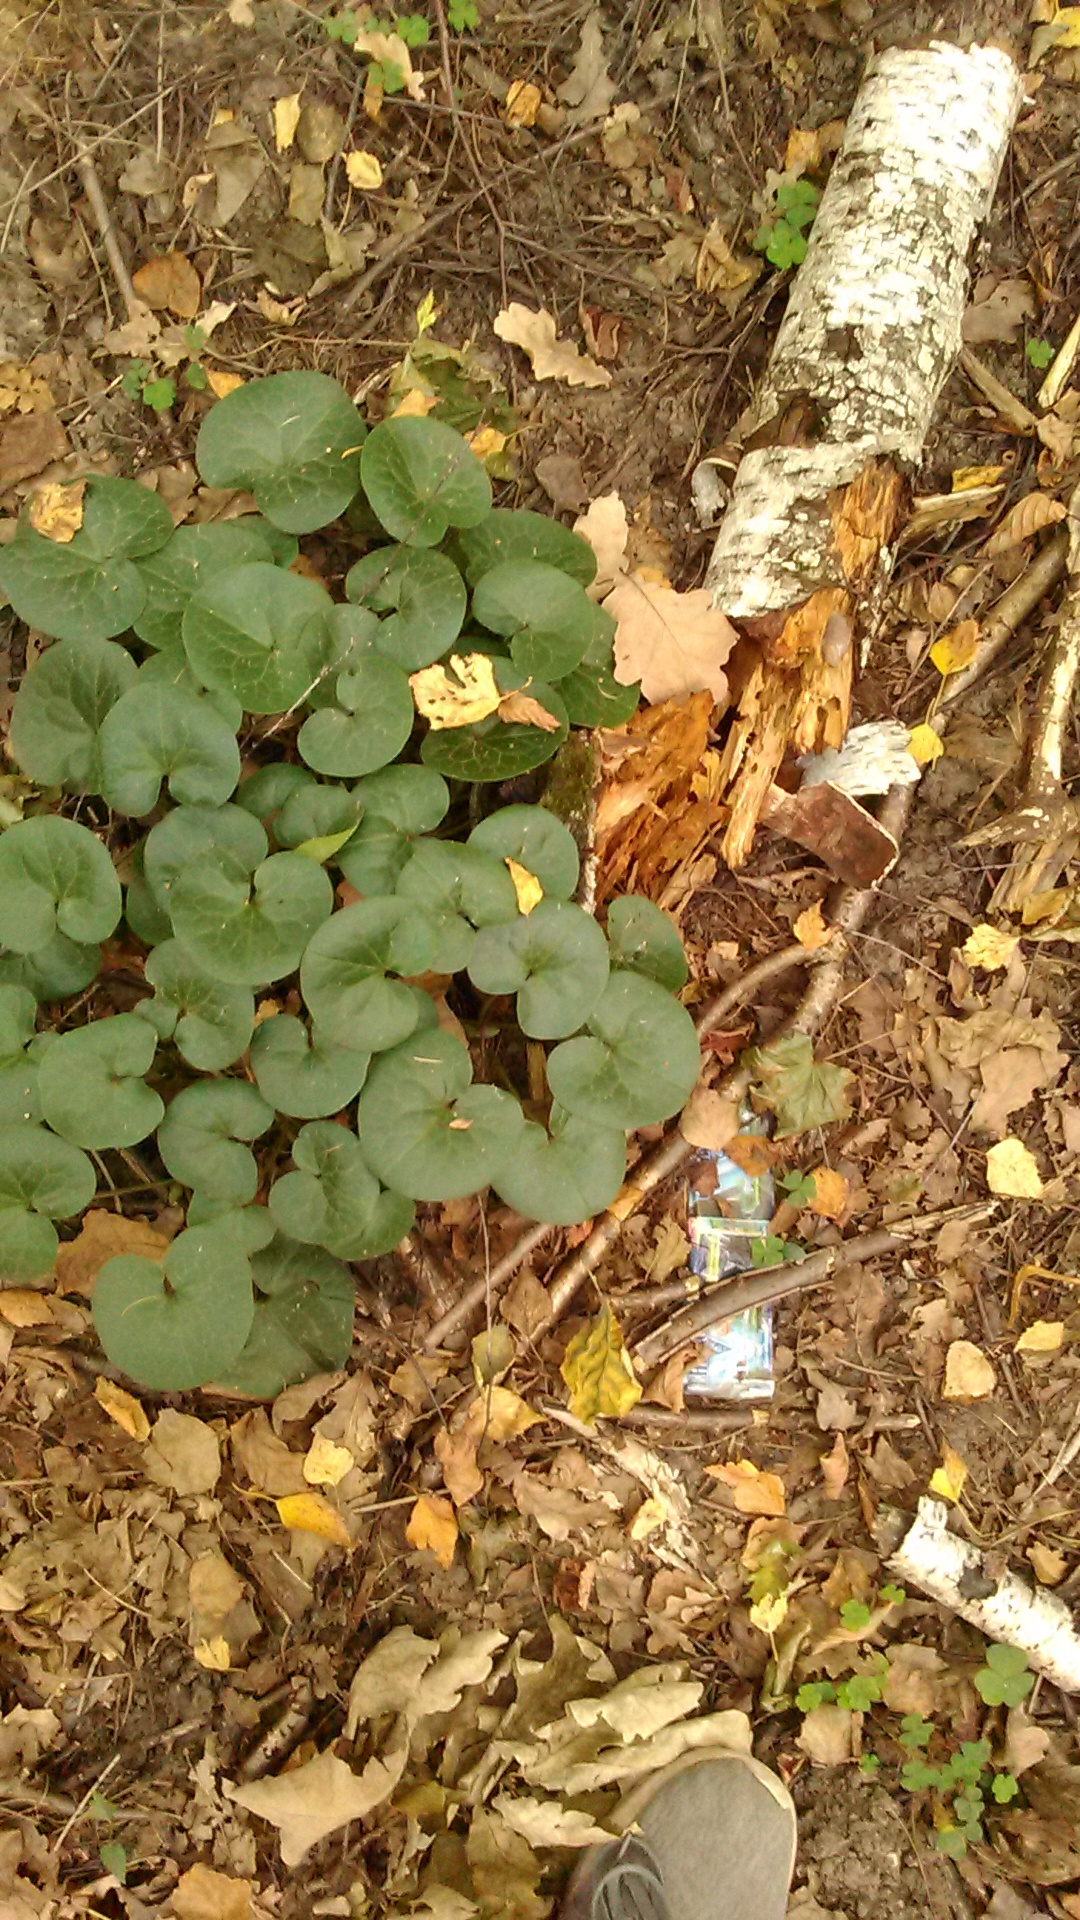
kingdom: Plantae
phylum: Tracheophyta
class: Magnoliopsida
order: Piperales
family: Aristolochiaceae
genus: Asarum
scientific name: Asarum europaeum
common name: Asarabacca
